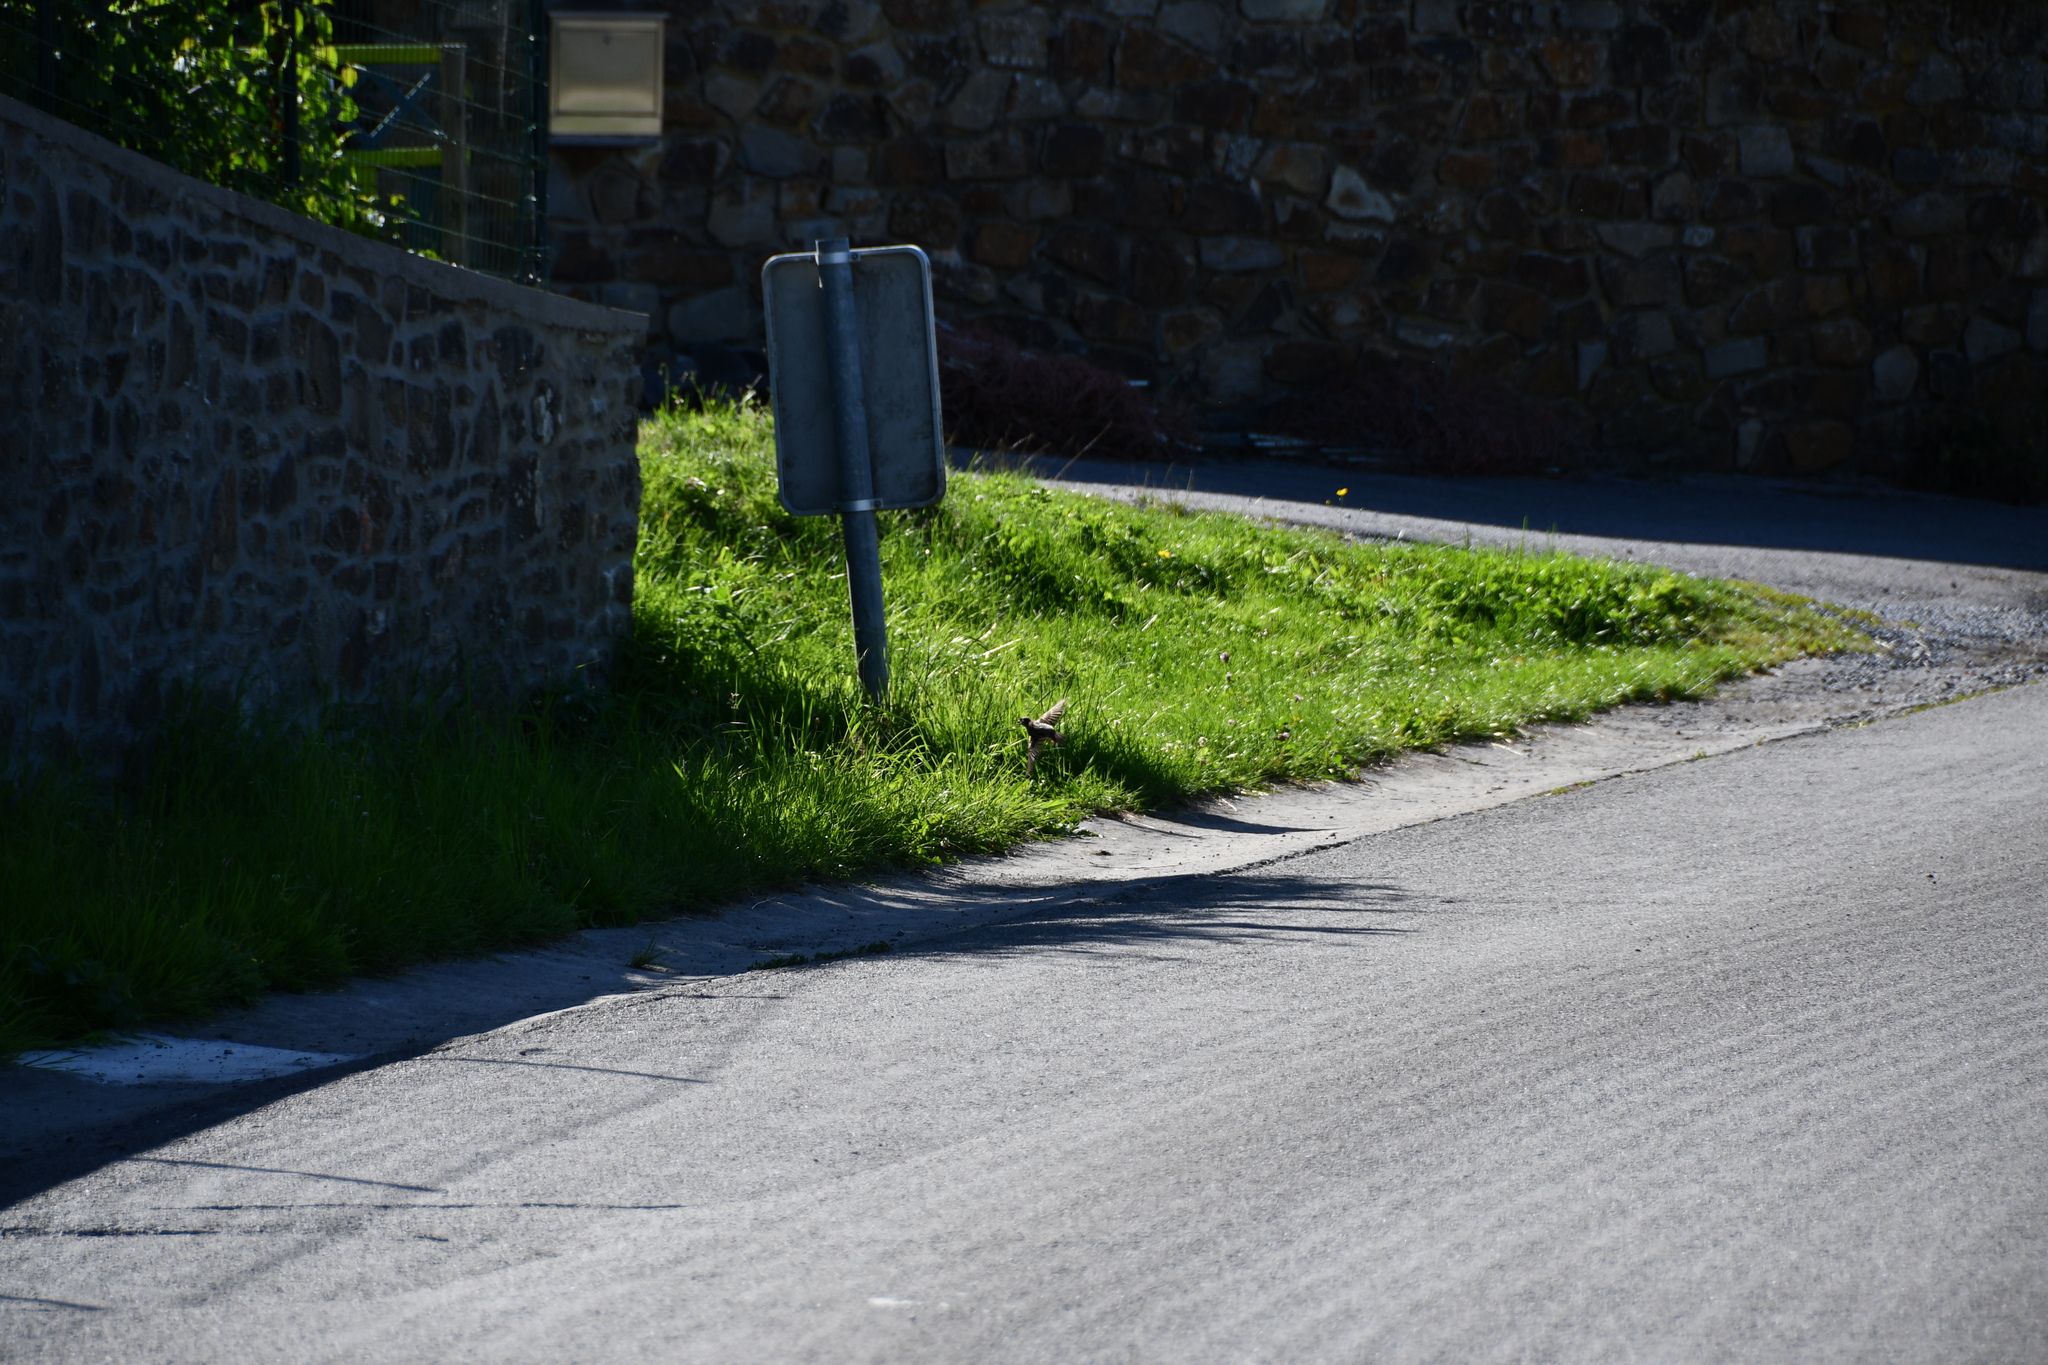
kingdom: Animalia
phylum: Chordata
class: Aves
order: Passeriformes
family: Passeridae
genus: Passer
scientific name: Passer domesticus
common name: House sparrow
